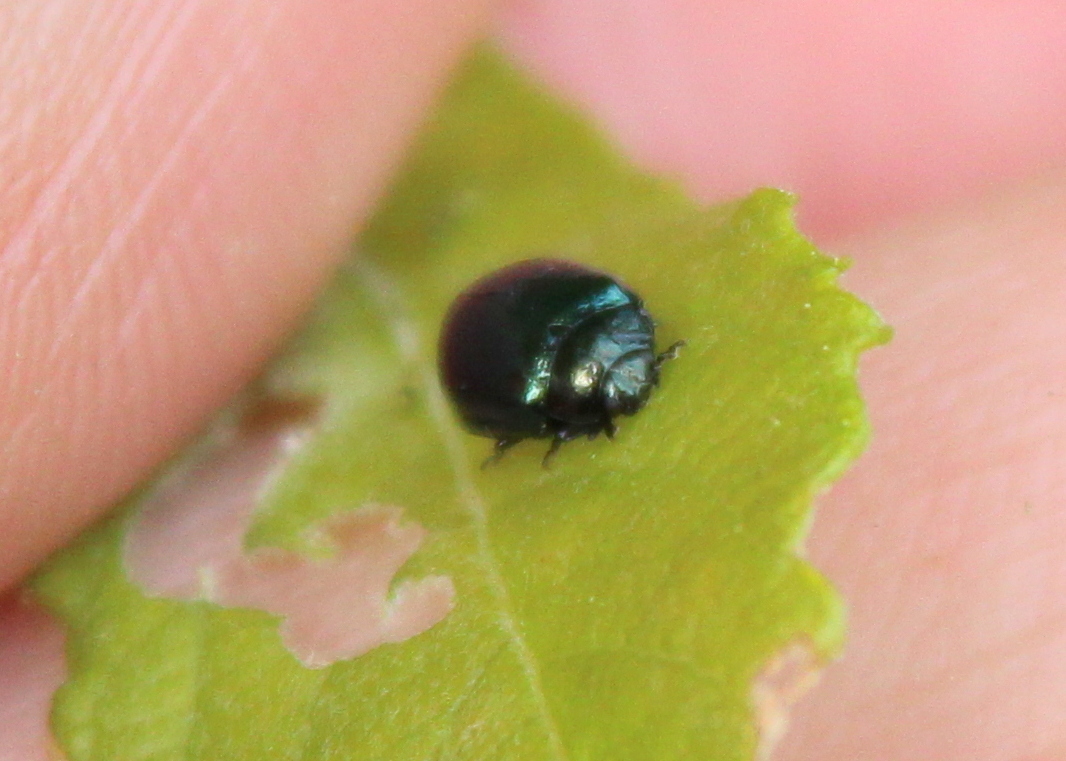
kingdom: Animalia
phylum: Arthropoda
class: Insecta
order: Coleoptera
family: Chrysomelidae
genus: Plagiodera
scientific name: Plagiodera versicolora
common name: Imported willow leaf beetle
